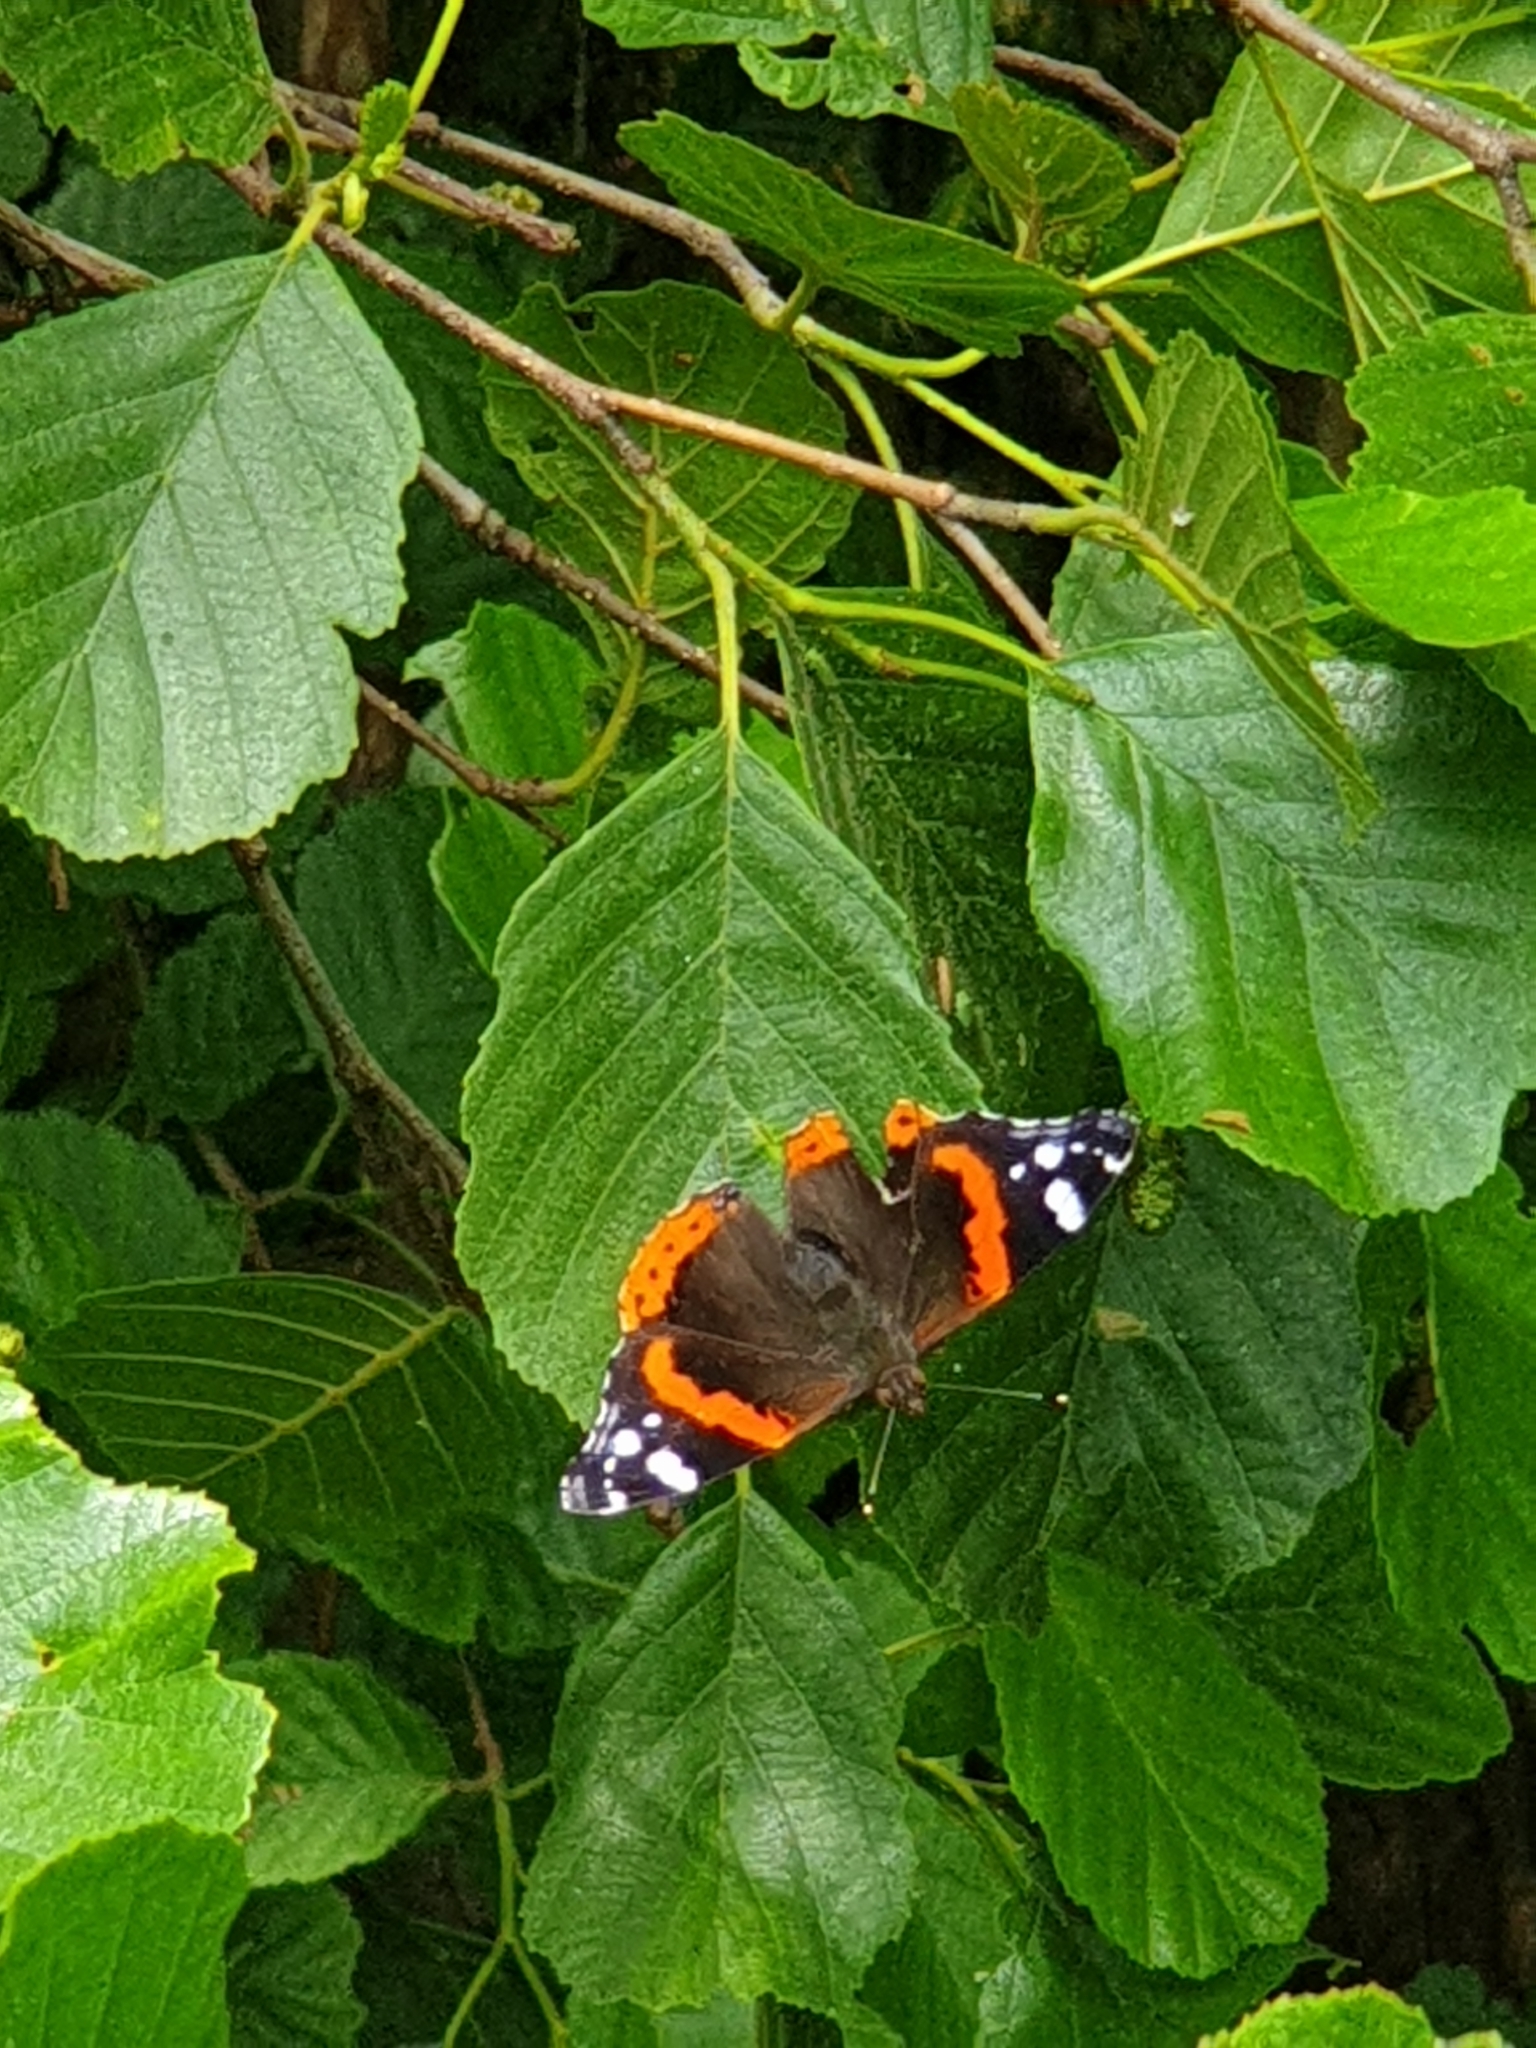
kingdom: Animalia
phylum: Arthropoda
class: Insecta
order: Lepidoptera
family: Nymphalidae
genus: Vanessa
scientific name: Vanessa atalanta
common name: Red admiral
